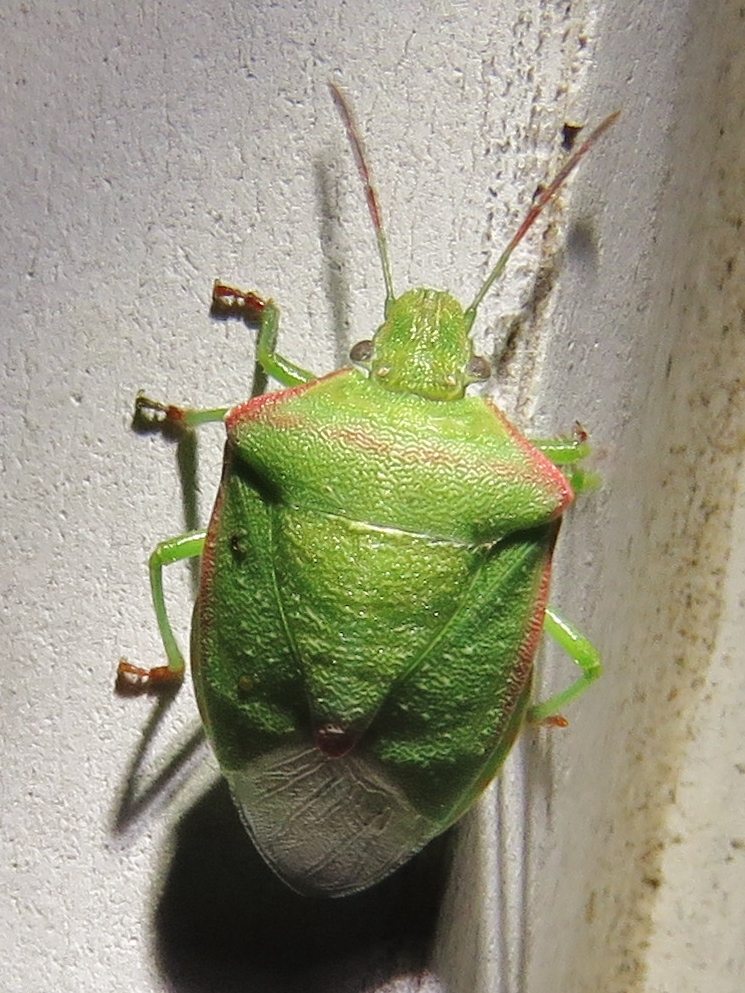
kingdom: Animalia
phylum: Arthropoda
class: Insecta
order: Hemiptera
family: Pentatomidae
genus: Thyanta
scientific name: Thyanta custator
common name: Stink bug
